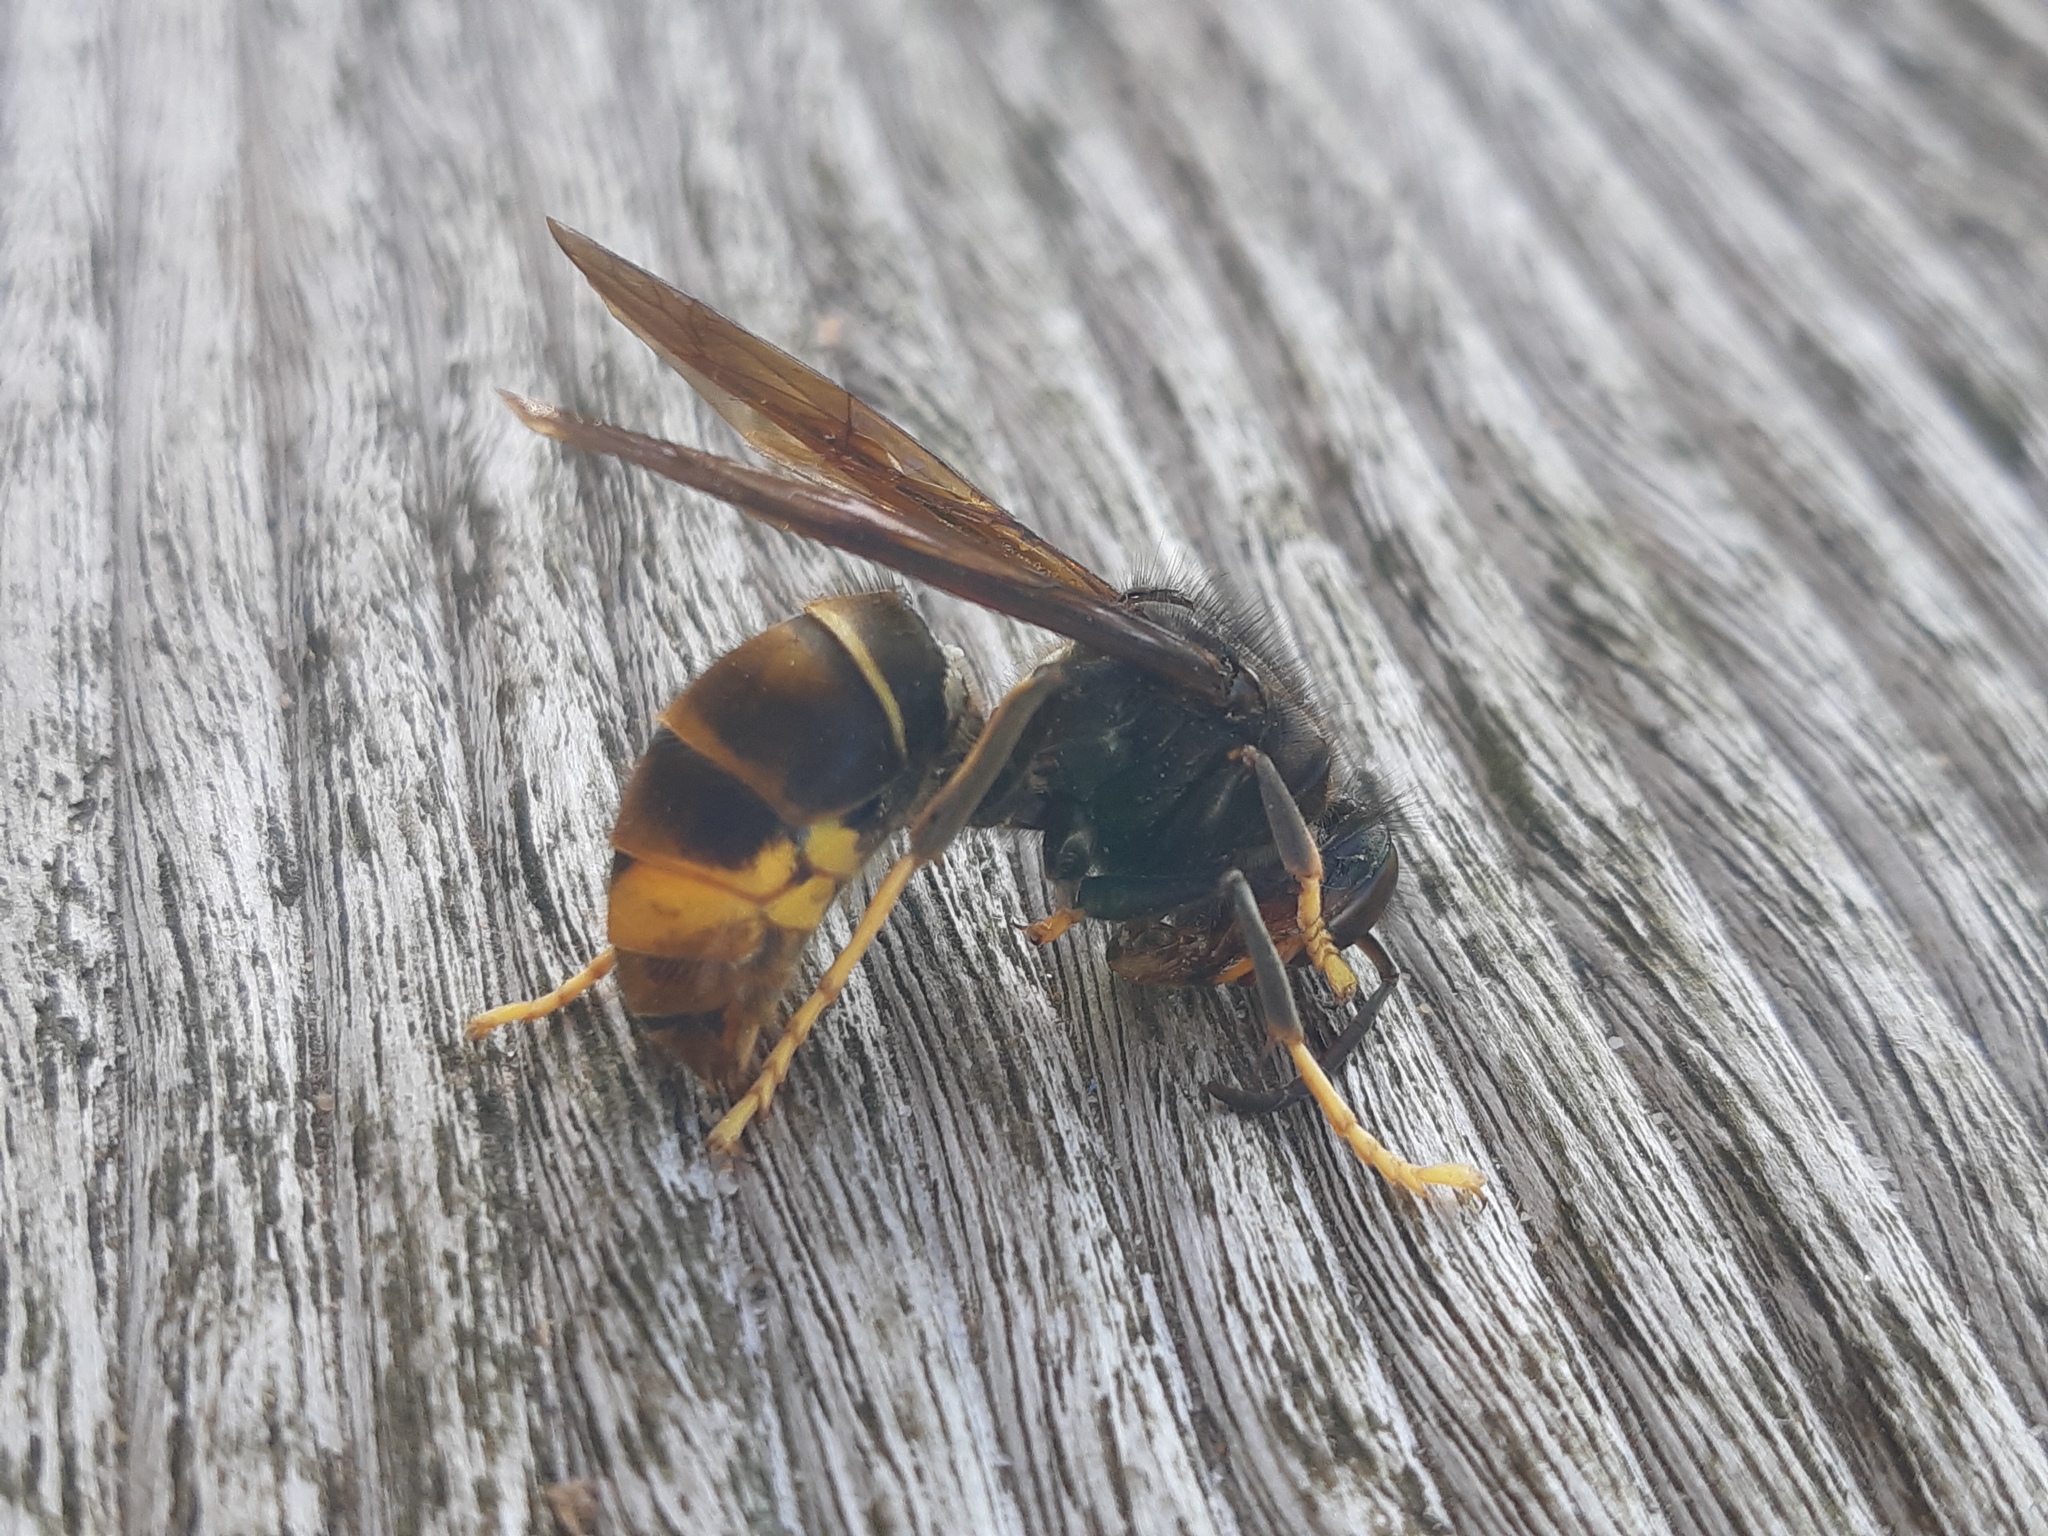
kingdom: Animalia
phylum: Arthropoda
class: Insecta
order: Hymenoptera
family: Vespidae
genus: Vespa
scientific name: Vespa velutina
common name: Asian hornet
